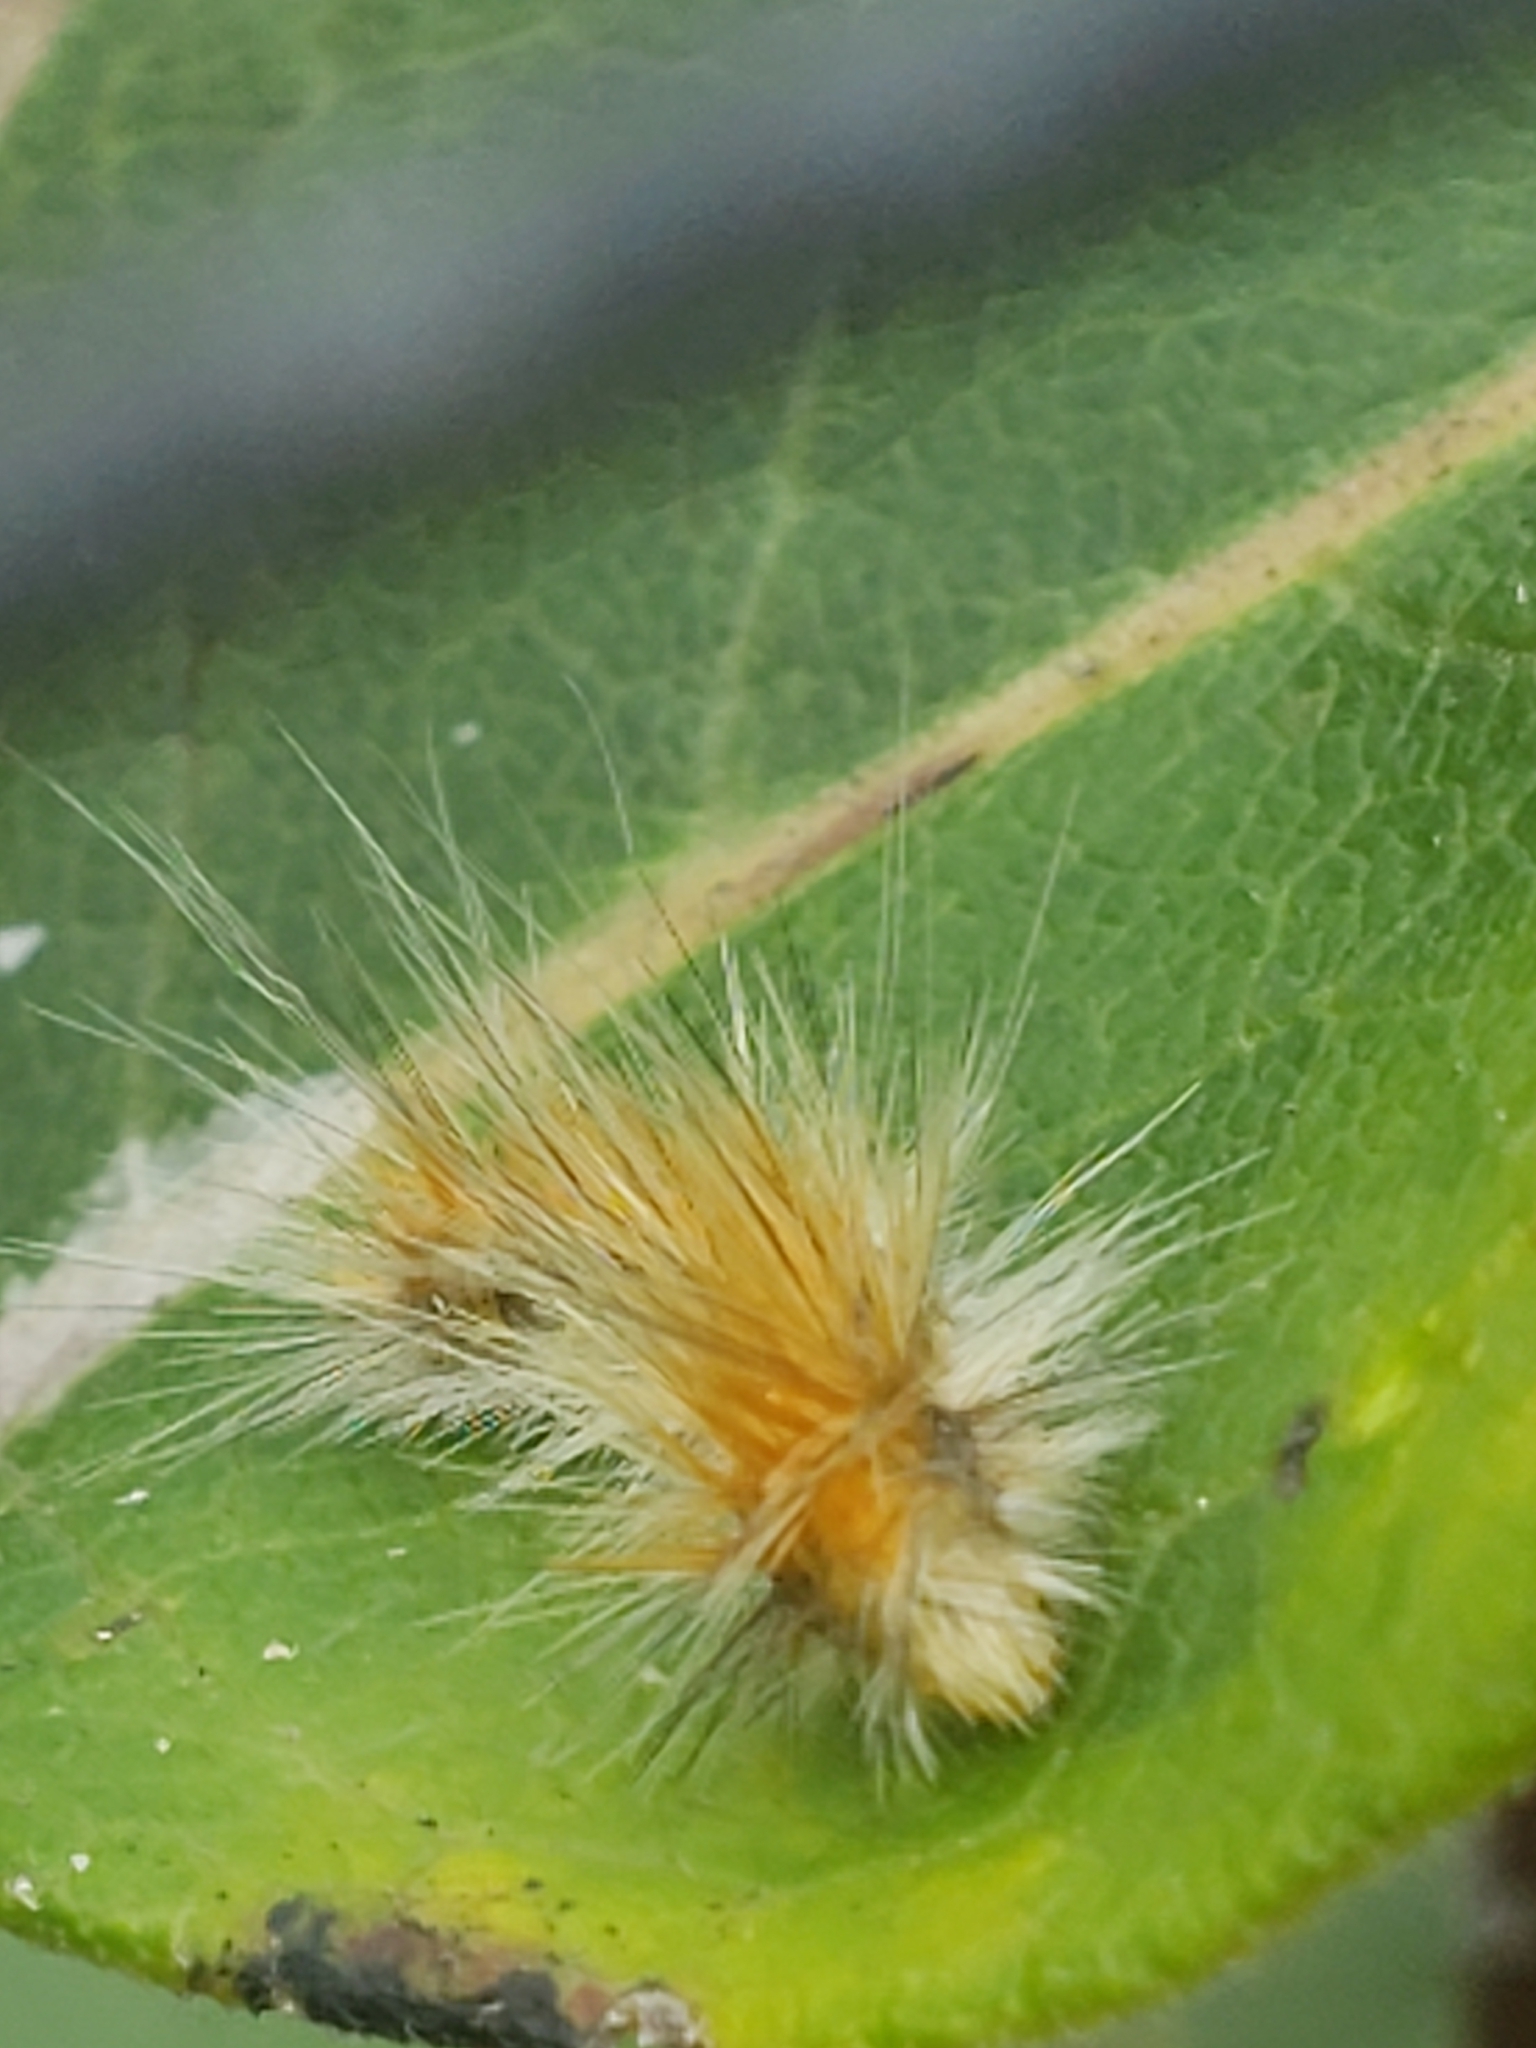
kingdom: Animalia
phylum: Arthropoda
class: Insecta
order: Lepidoptera
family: Erebidae
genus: Spilosoma
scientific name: Spilosoma virginica
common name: Virginia tiger moth
